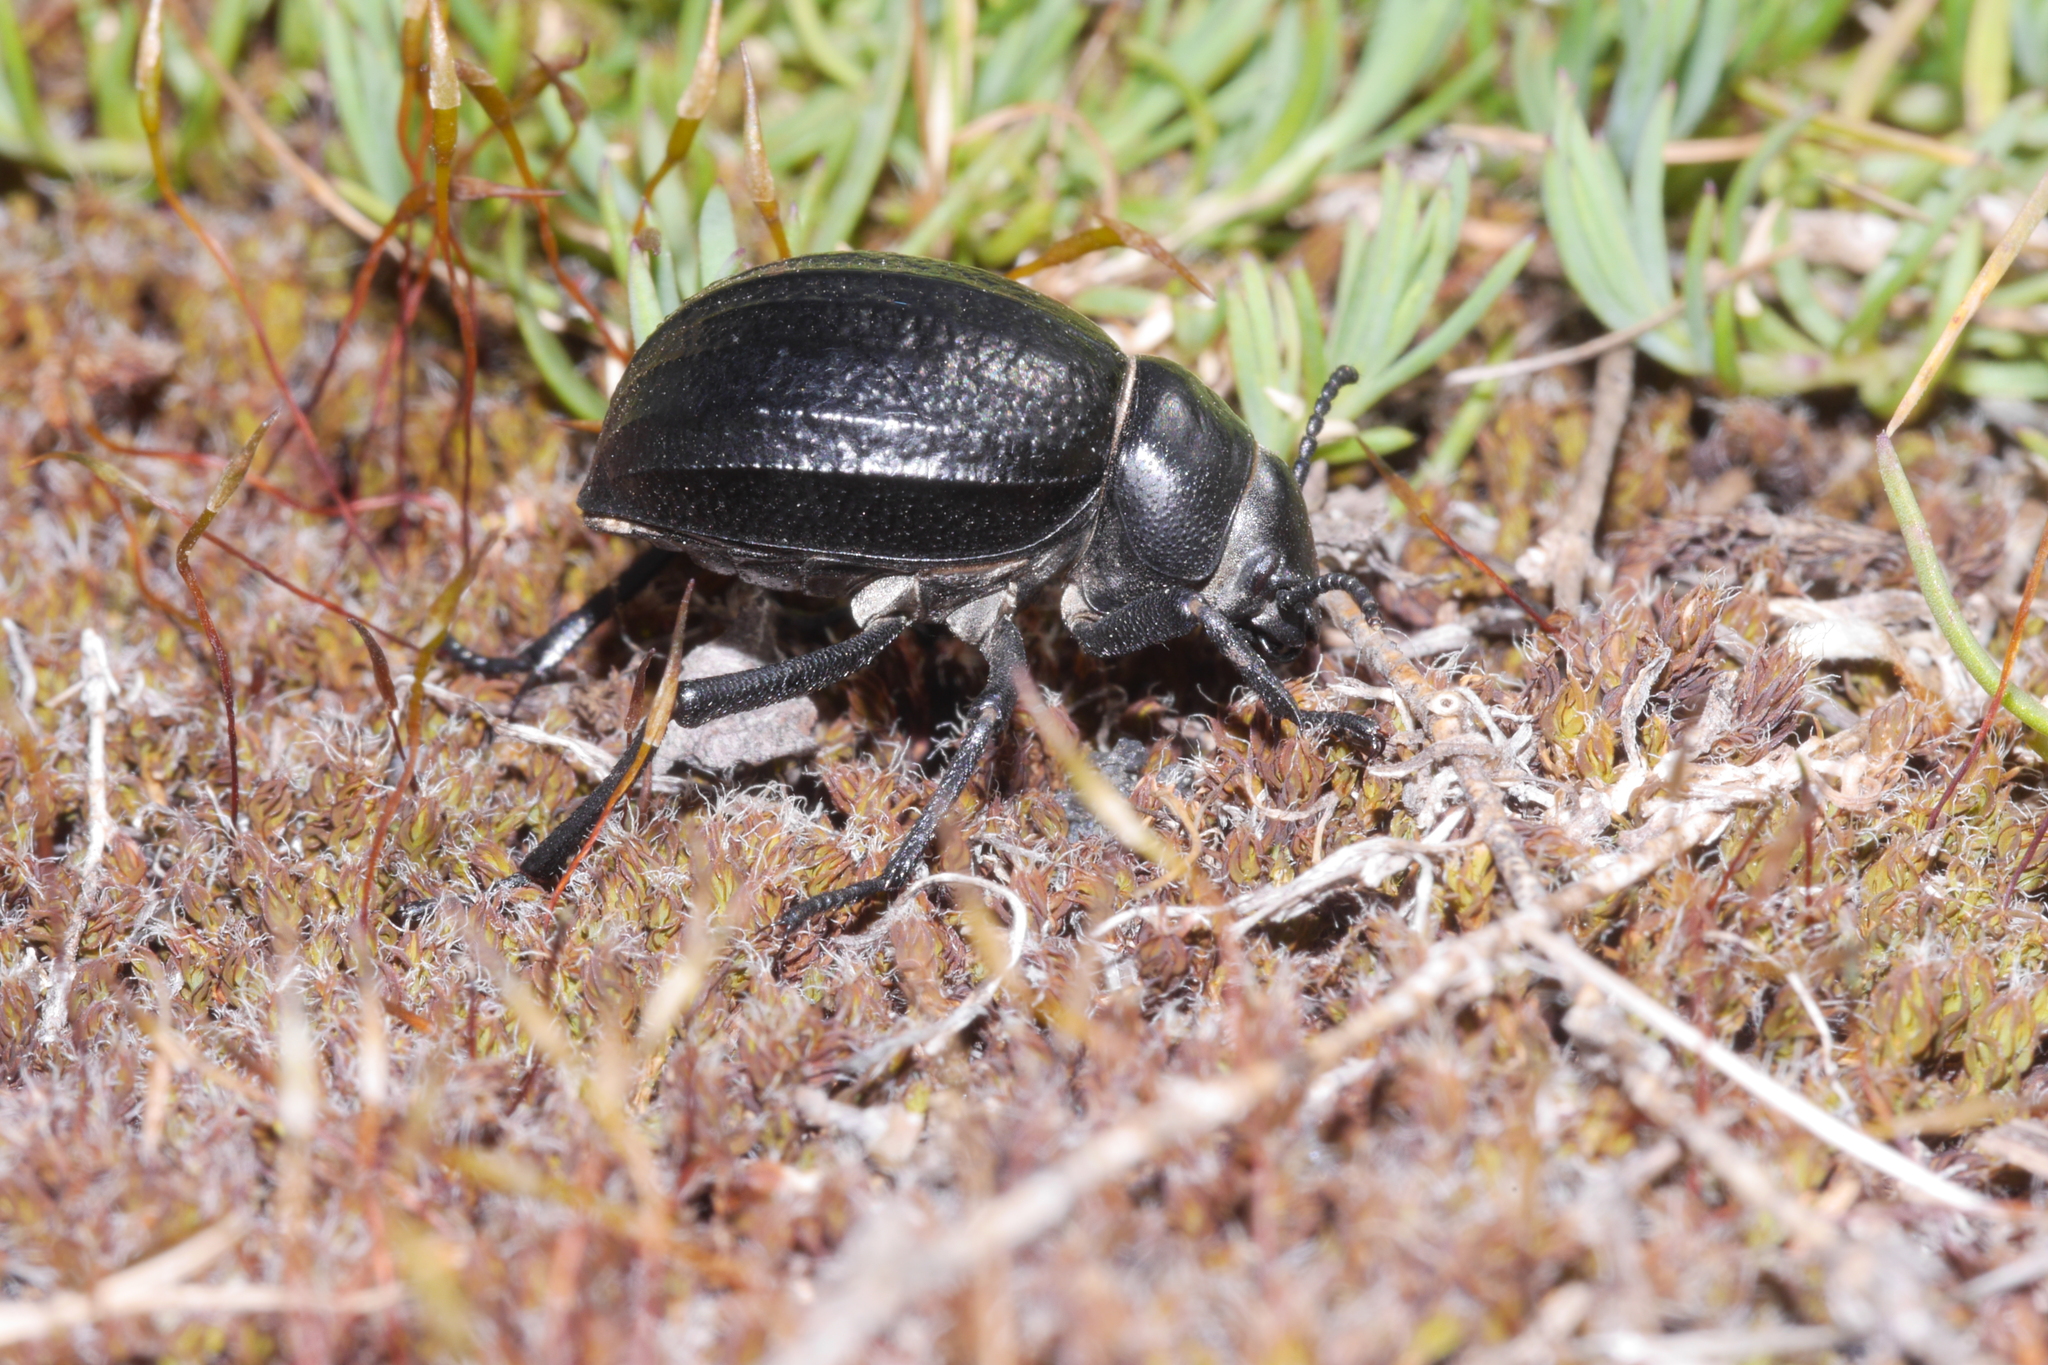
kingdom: Animalia
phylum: Arthropoda
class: Insecta
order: Coleoptera
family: Tenebrionidae
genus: Pimelia
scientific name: Pimelia rugulosa
